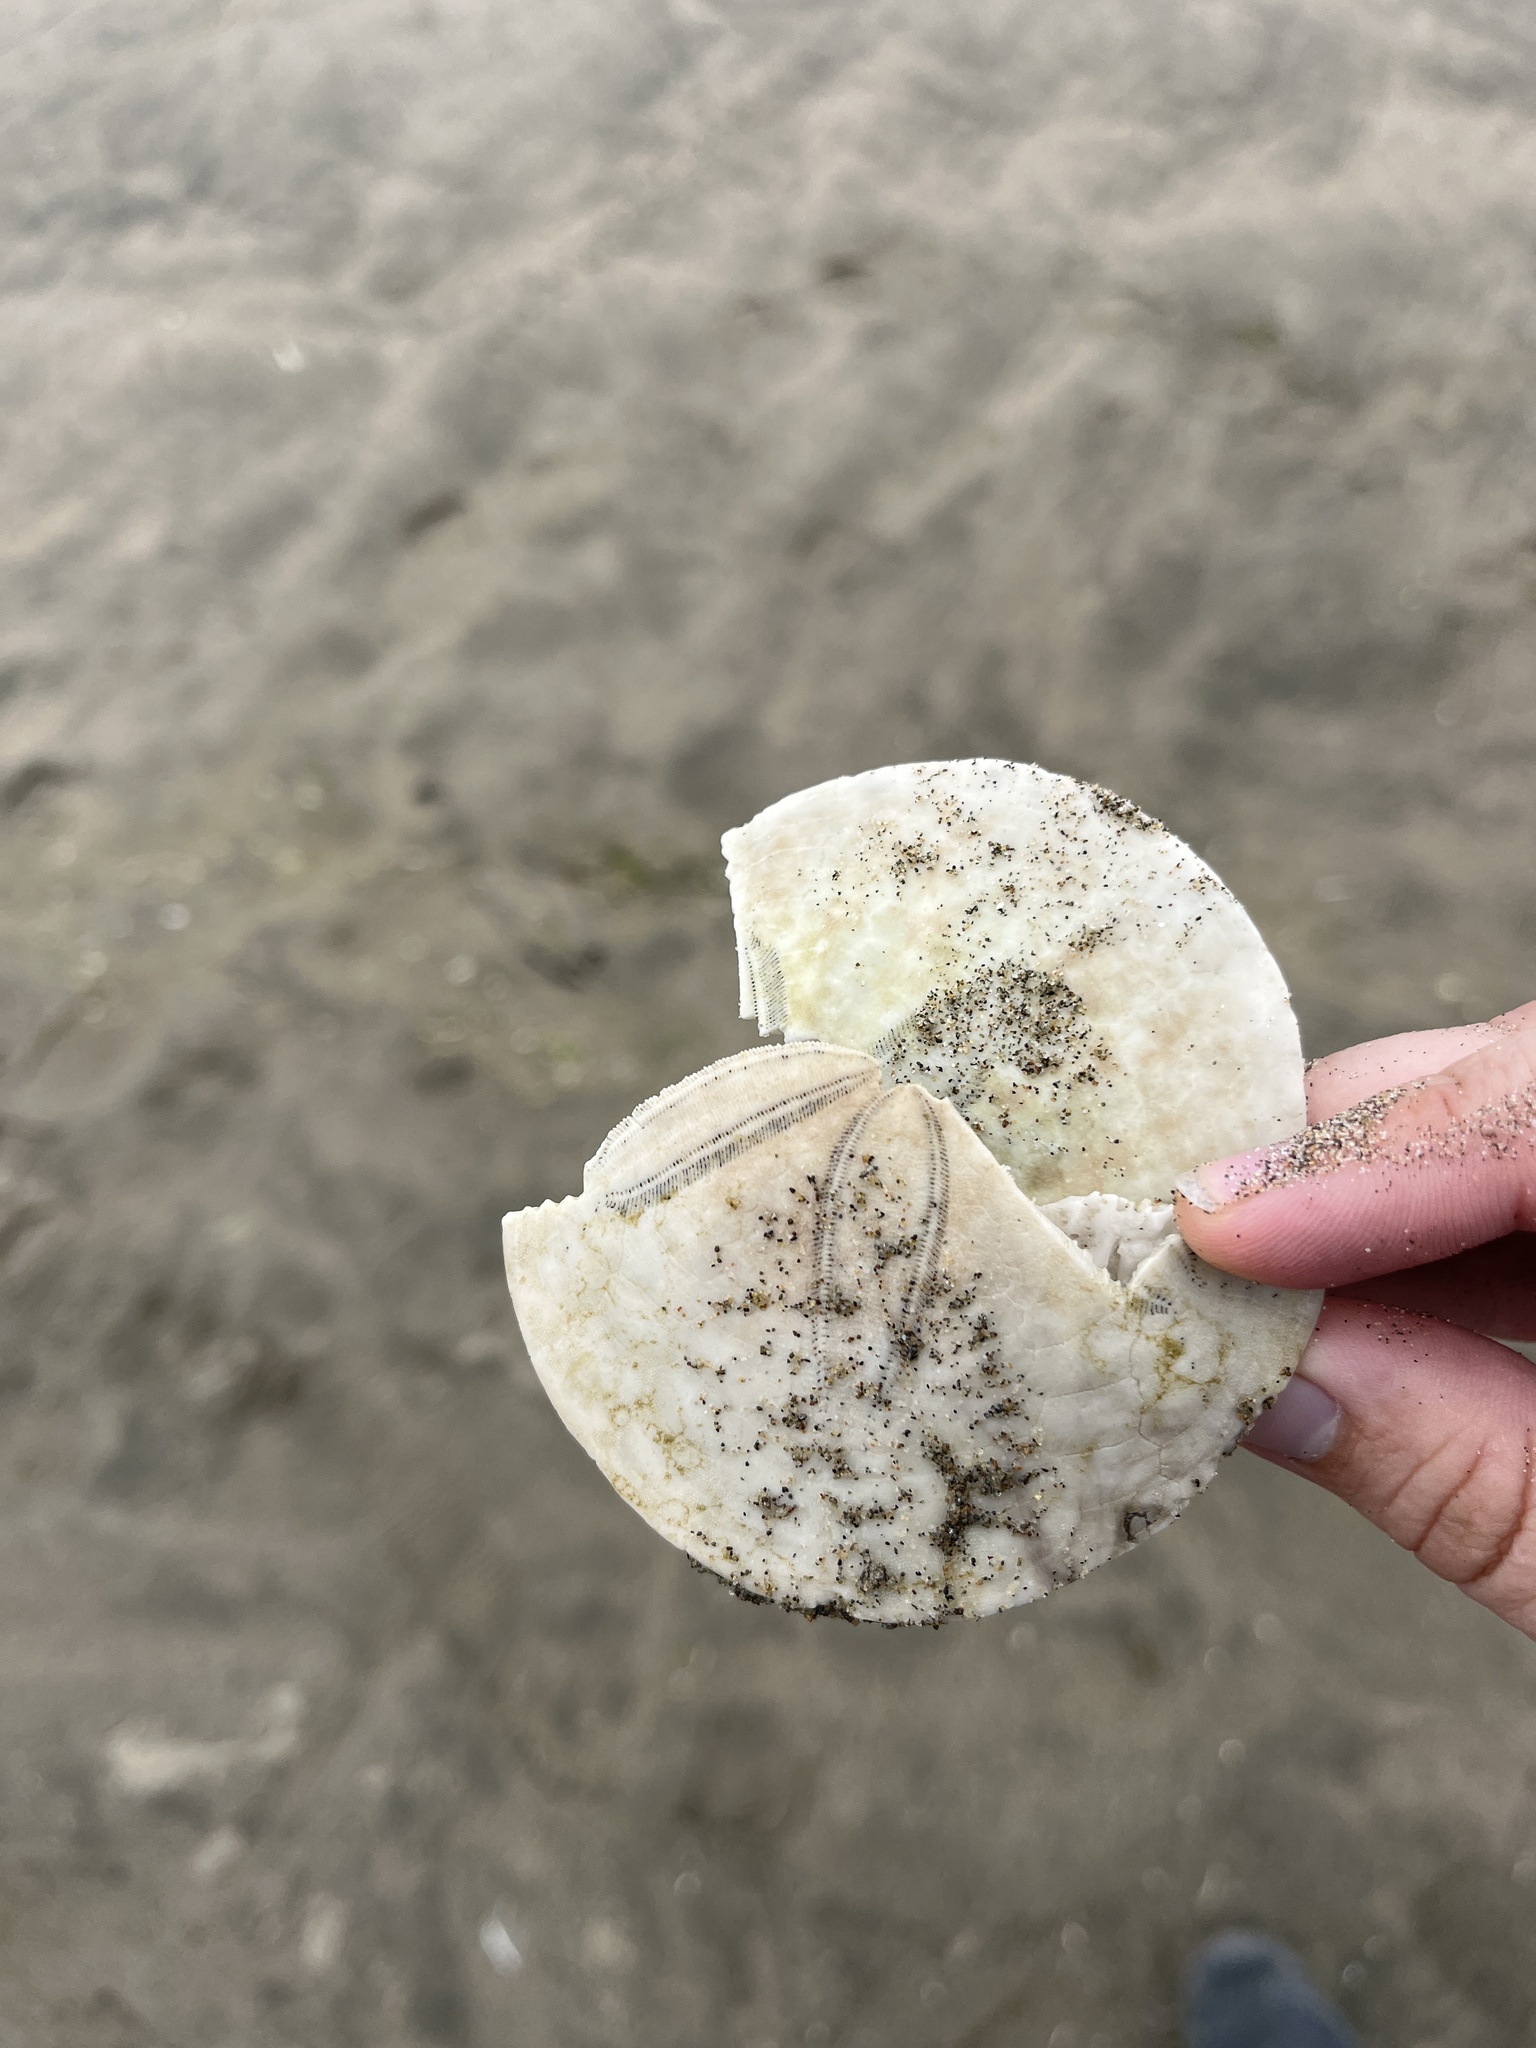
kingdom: Animalia
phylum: Echinodermata
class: Echinoidea
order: Echinolampadacea
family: Dendrasteridae
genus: Dendraster
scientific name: Dendraster excentricus
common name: Eccentric sand dollar sea urchin
